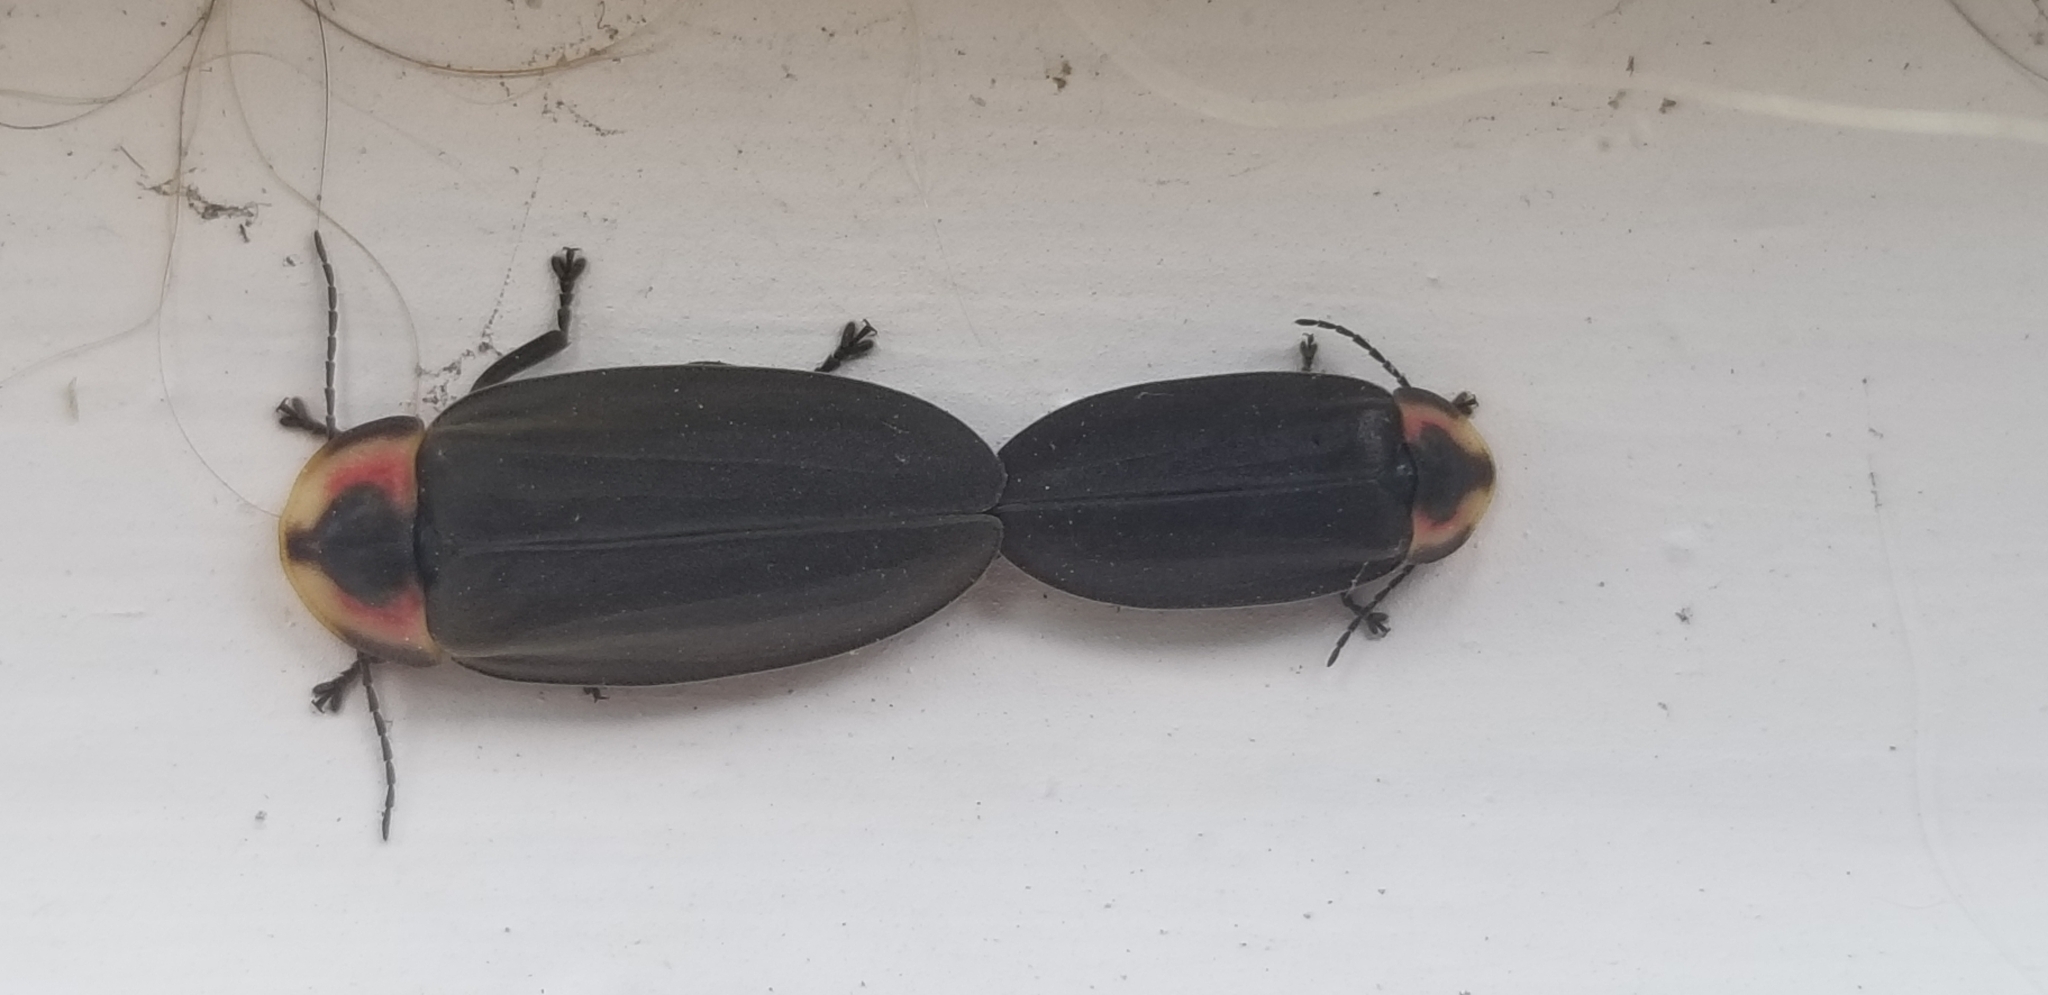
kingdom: Animalia
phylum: Arthropoda
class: Insecta
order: Coleoptera
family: Lampyridae
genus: Photinus
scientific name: Photinus corrusca
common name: Winter firefly
